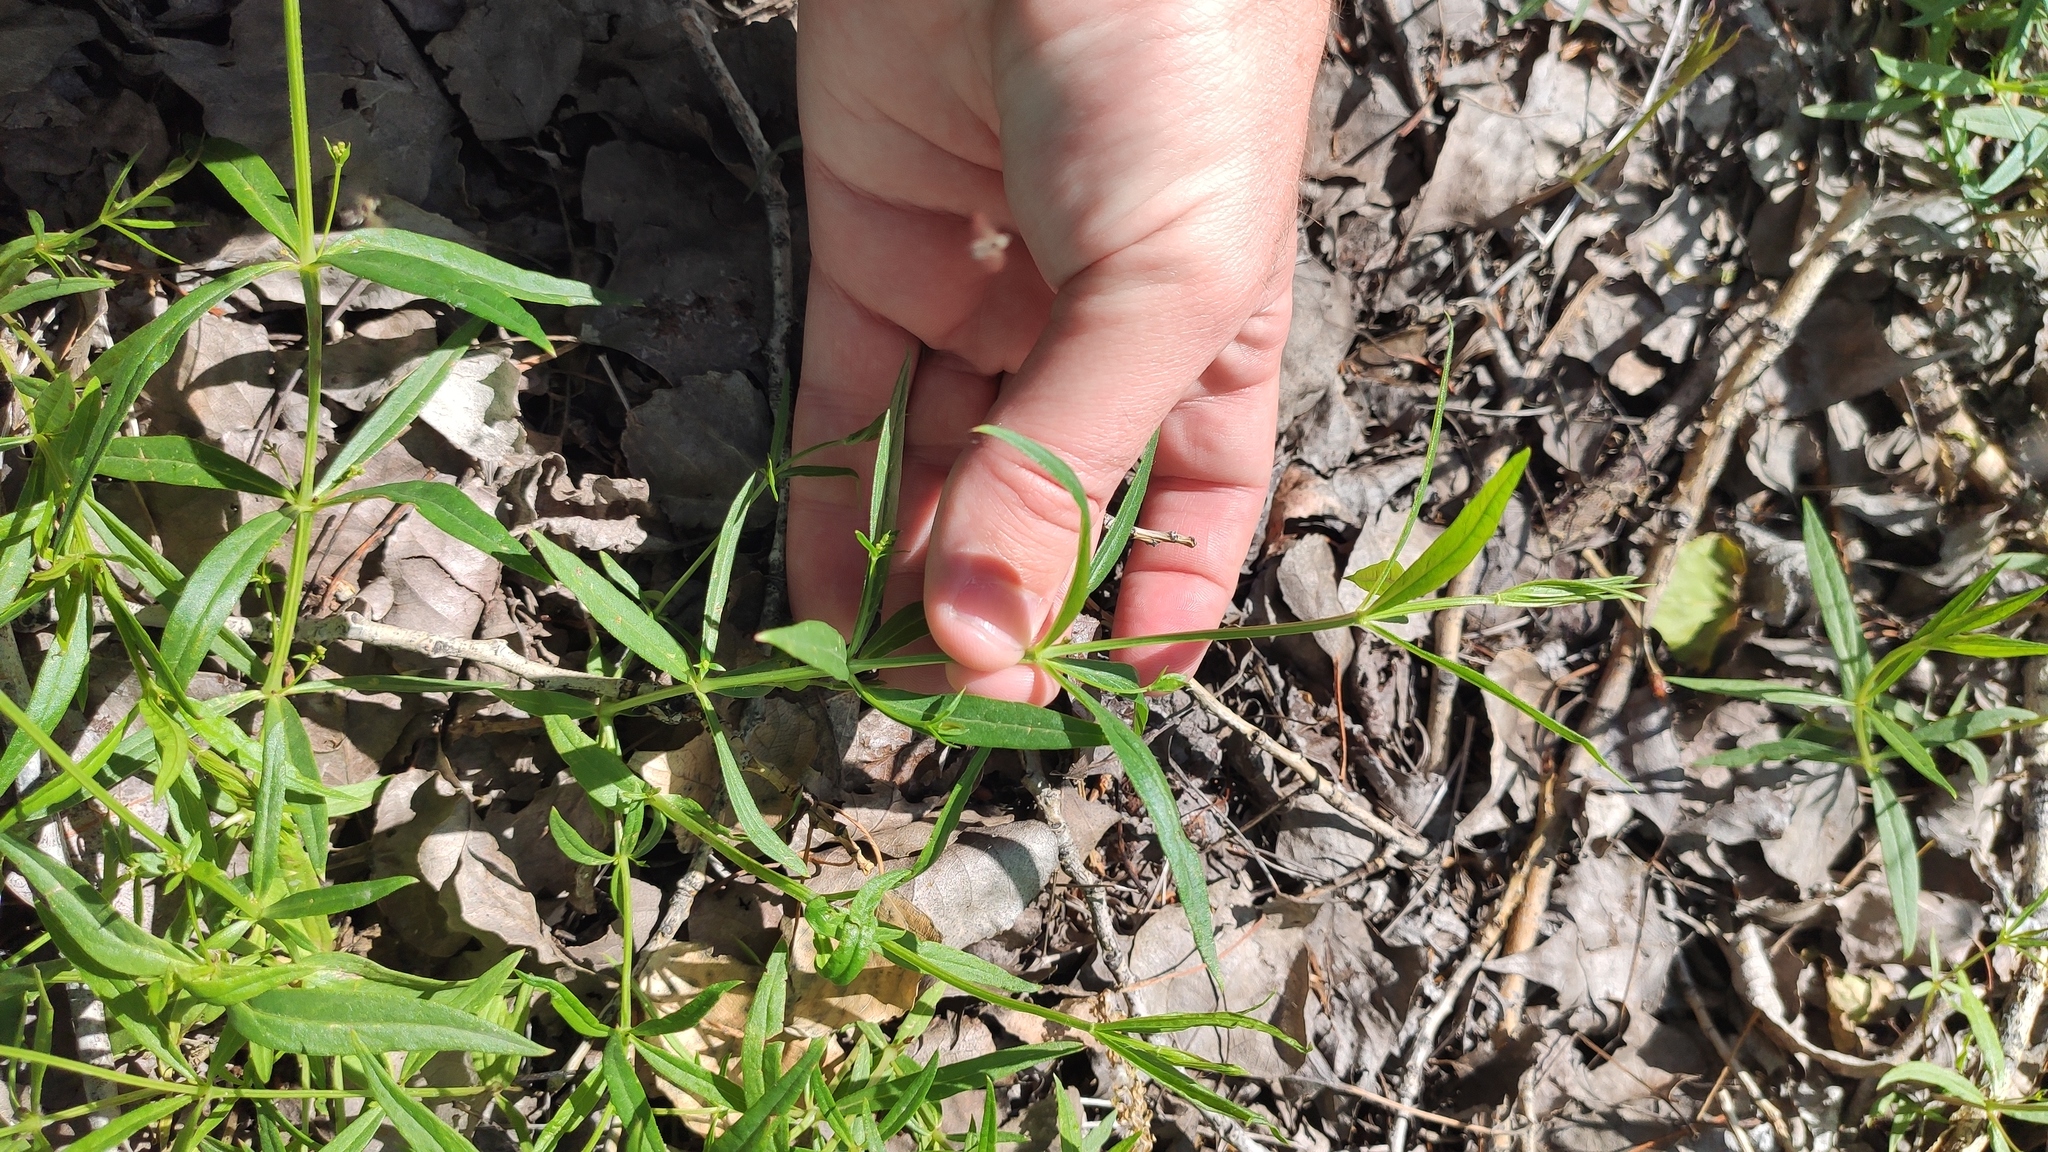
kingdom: Plantae
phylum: Tracheophyta
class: Magnoliopsida
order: Lamiales
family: Lamiaceae
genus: Stachys
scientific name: Stachys recta
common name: Perennial yellow-woundwort
